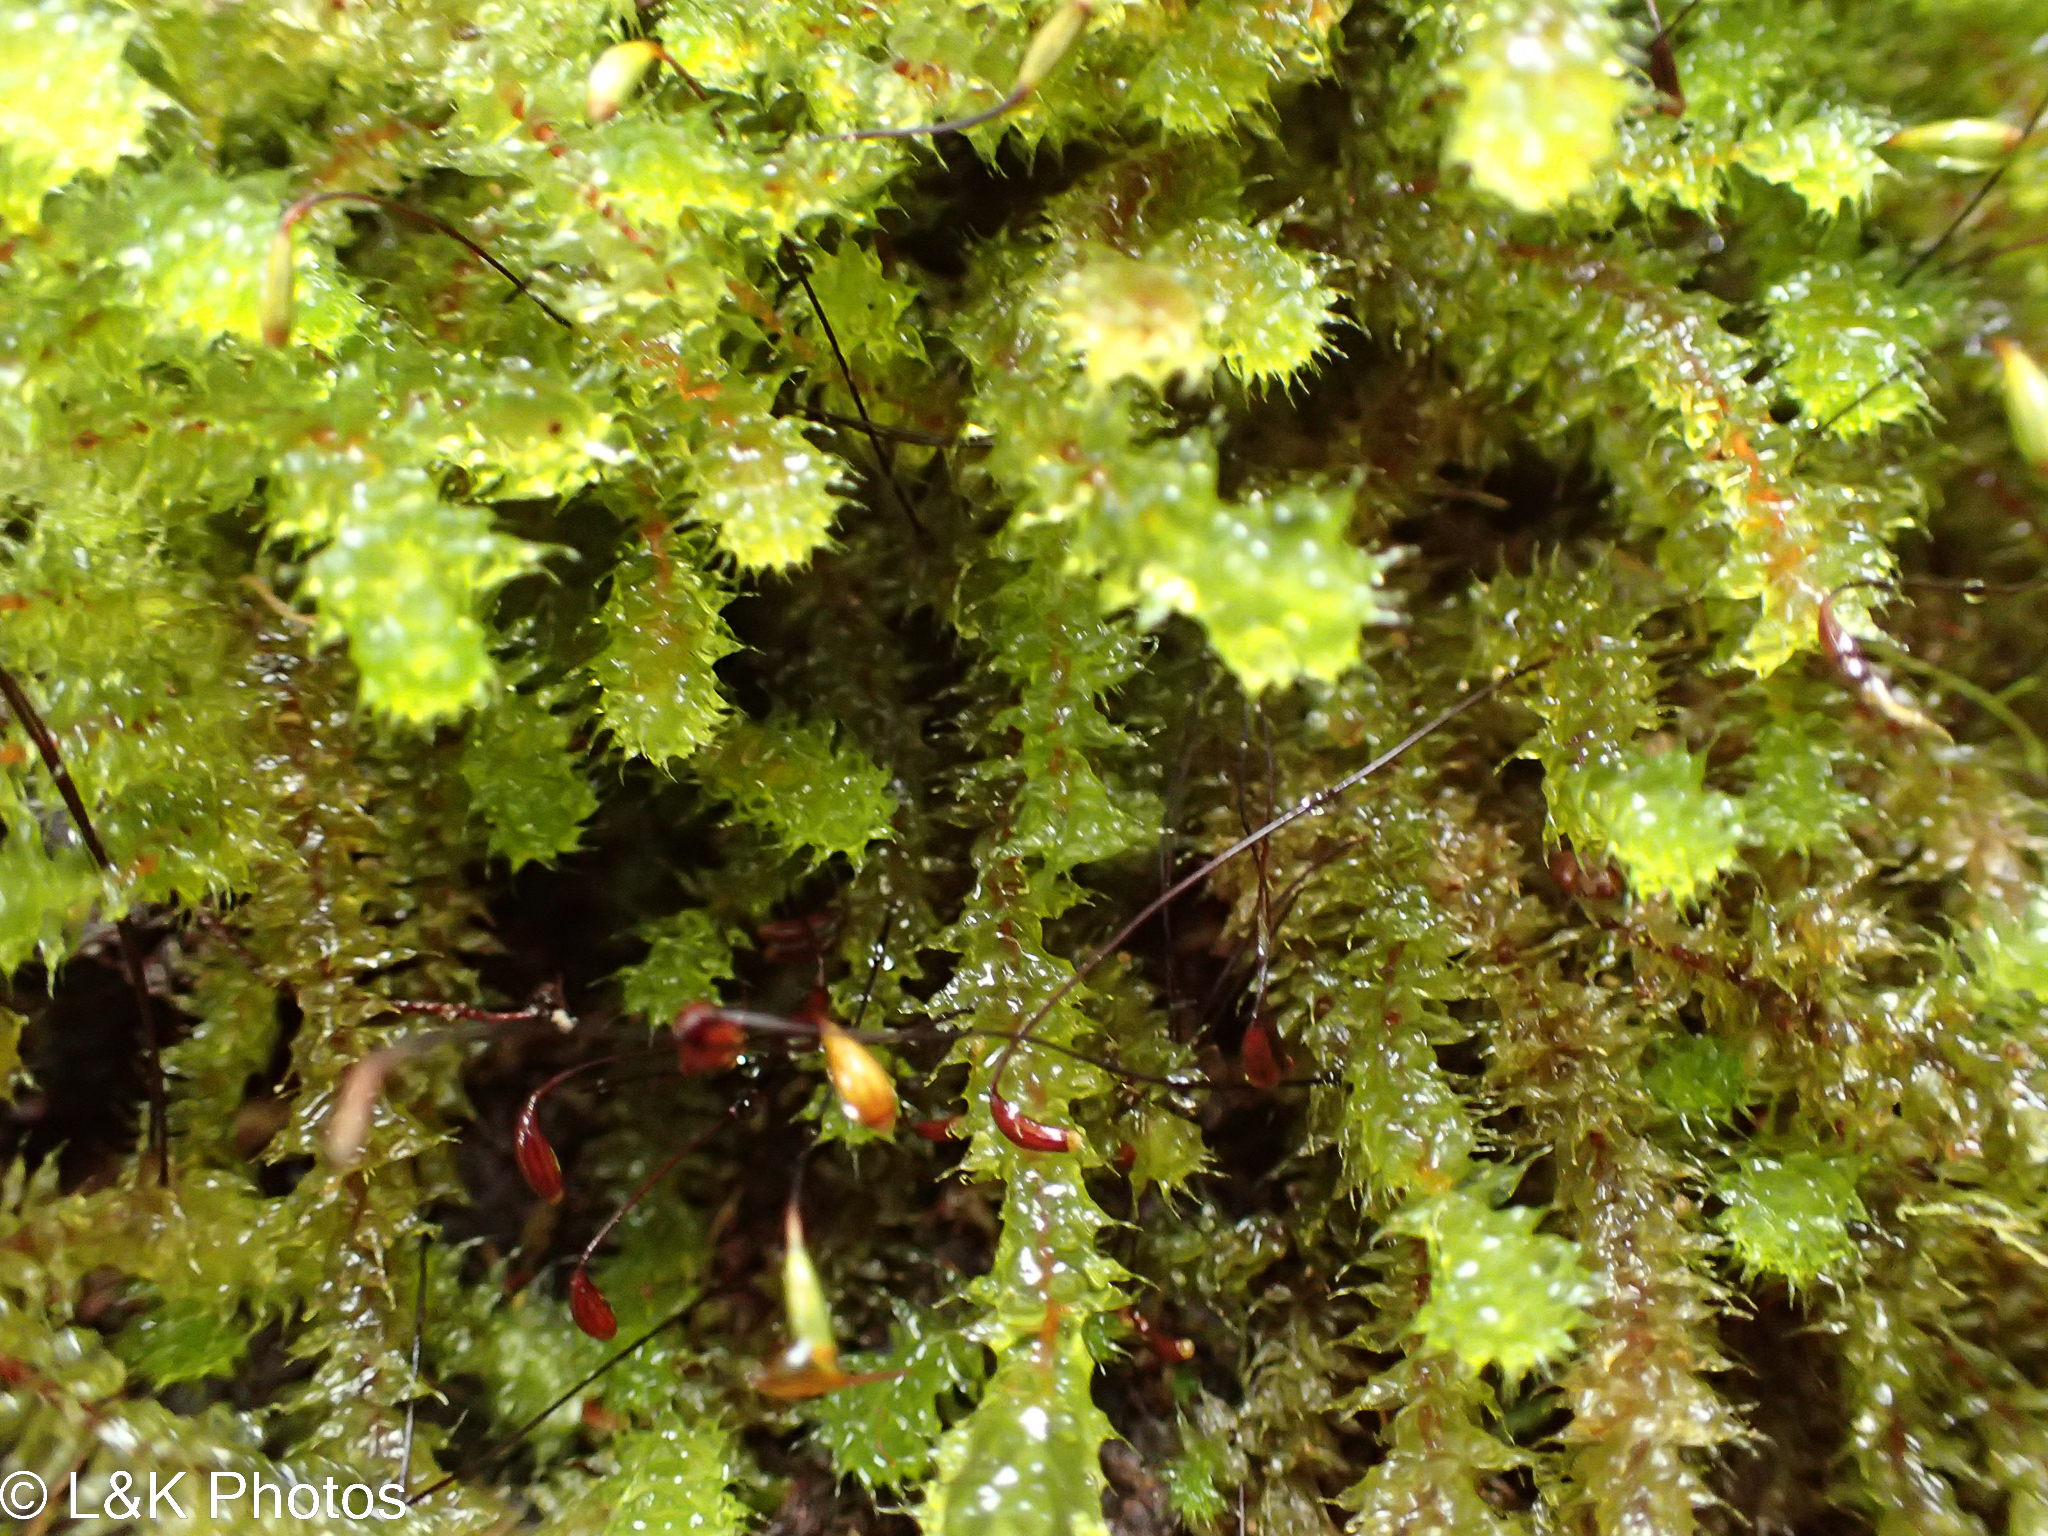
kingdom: Plantae
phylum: Bryophyta
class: Bryopsida
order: Ptychomniales
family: Ptychomniaceae
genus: Ptychomnion
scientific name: Ptychomnion aciculare
